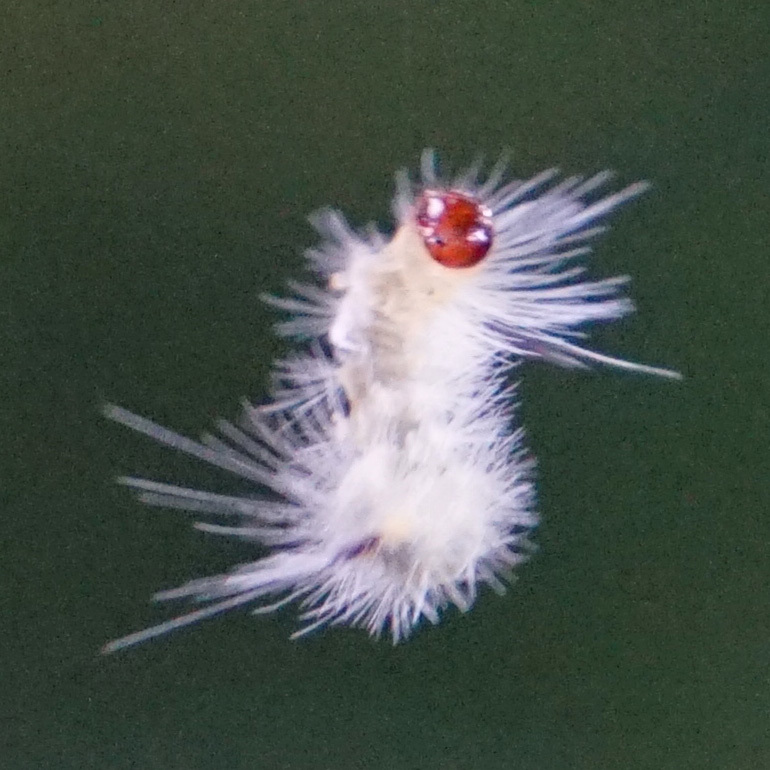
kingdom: Animalia
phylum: Arthropoda
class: Insecta
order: Lepidoptera
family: Erebidae
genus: Halysidota
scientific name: Halysidota tessellaris
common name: Banded tussock moth
